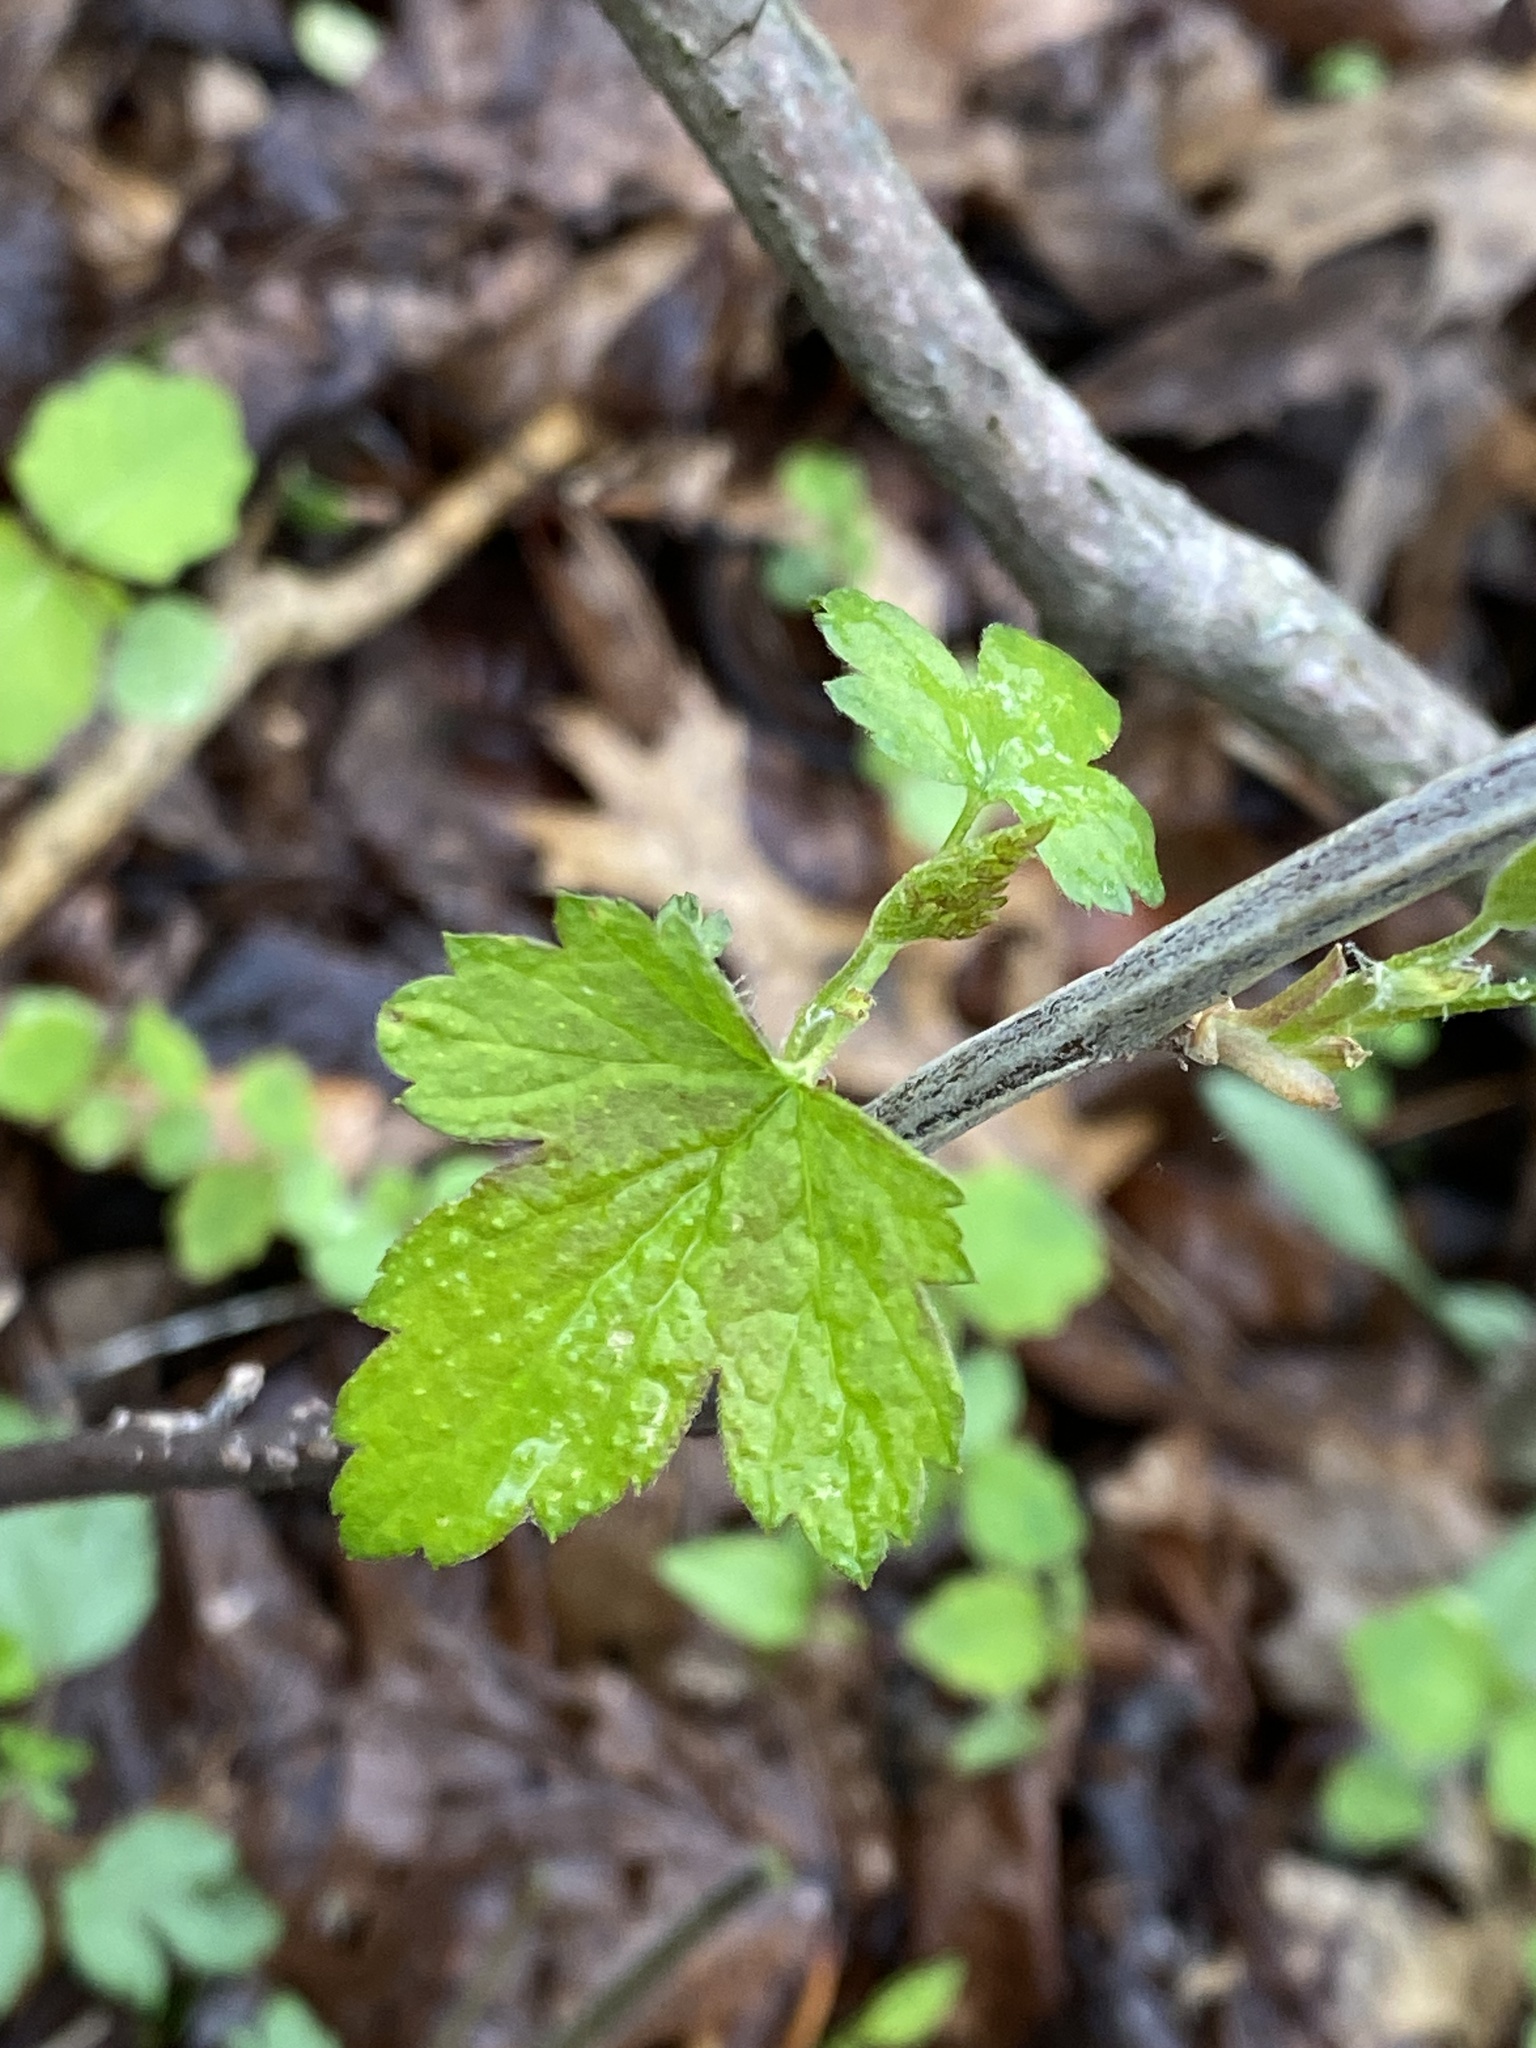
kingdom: Plantae
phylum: Tracheophyta
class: Magnoliopsida
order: Saxifragales
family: Grossulariaceae
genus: Ribes
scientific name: Ribes americanum
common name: American black currant
